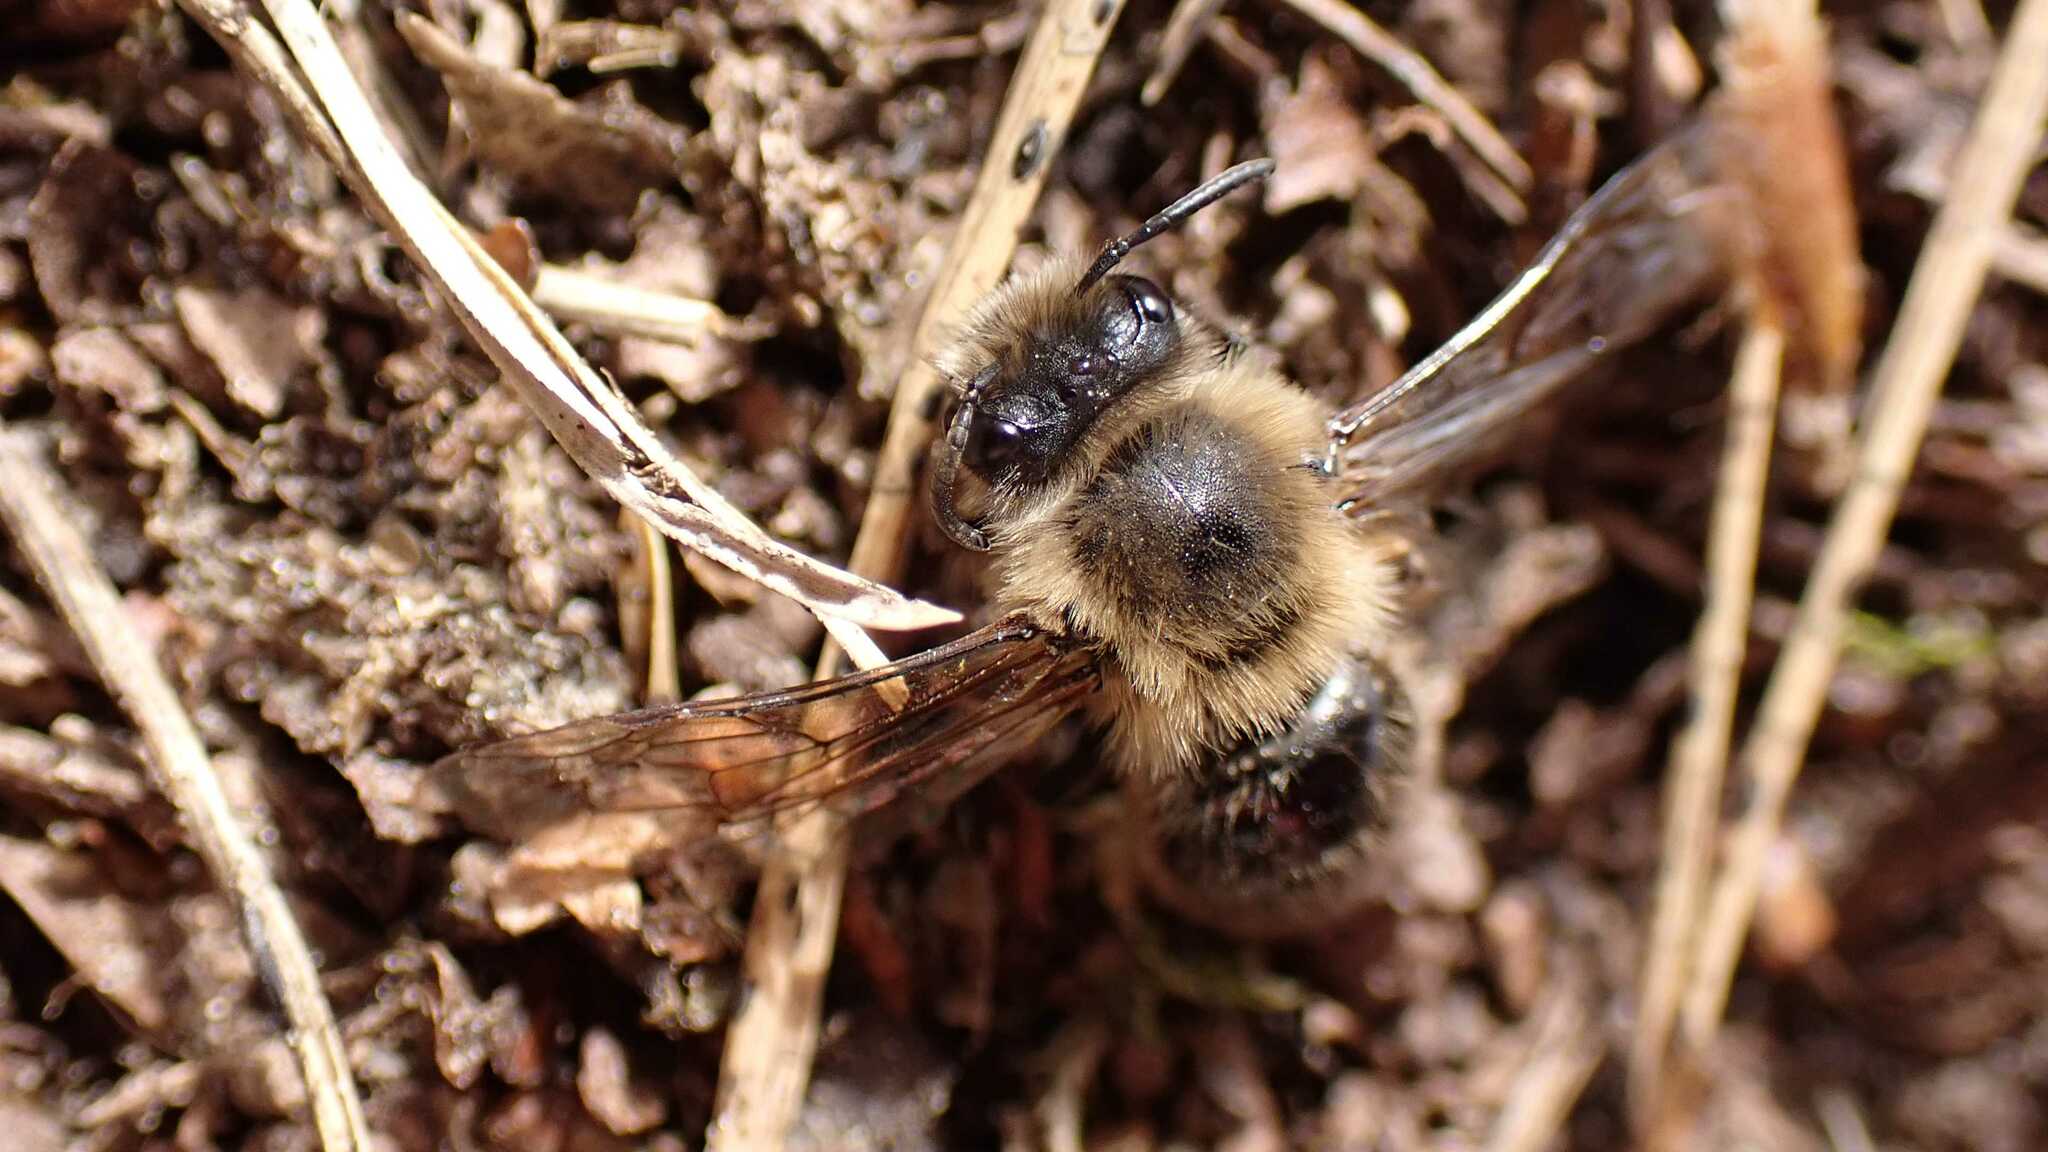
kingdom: Animalia
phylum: Arthropoda
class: Insecta
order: Hymenoptera
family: Colletidae
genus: Colletes
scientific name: Colletes cunicularius
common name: Early colletes
